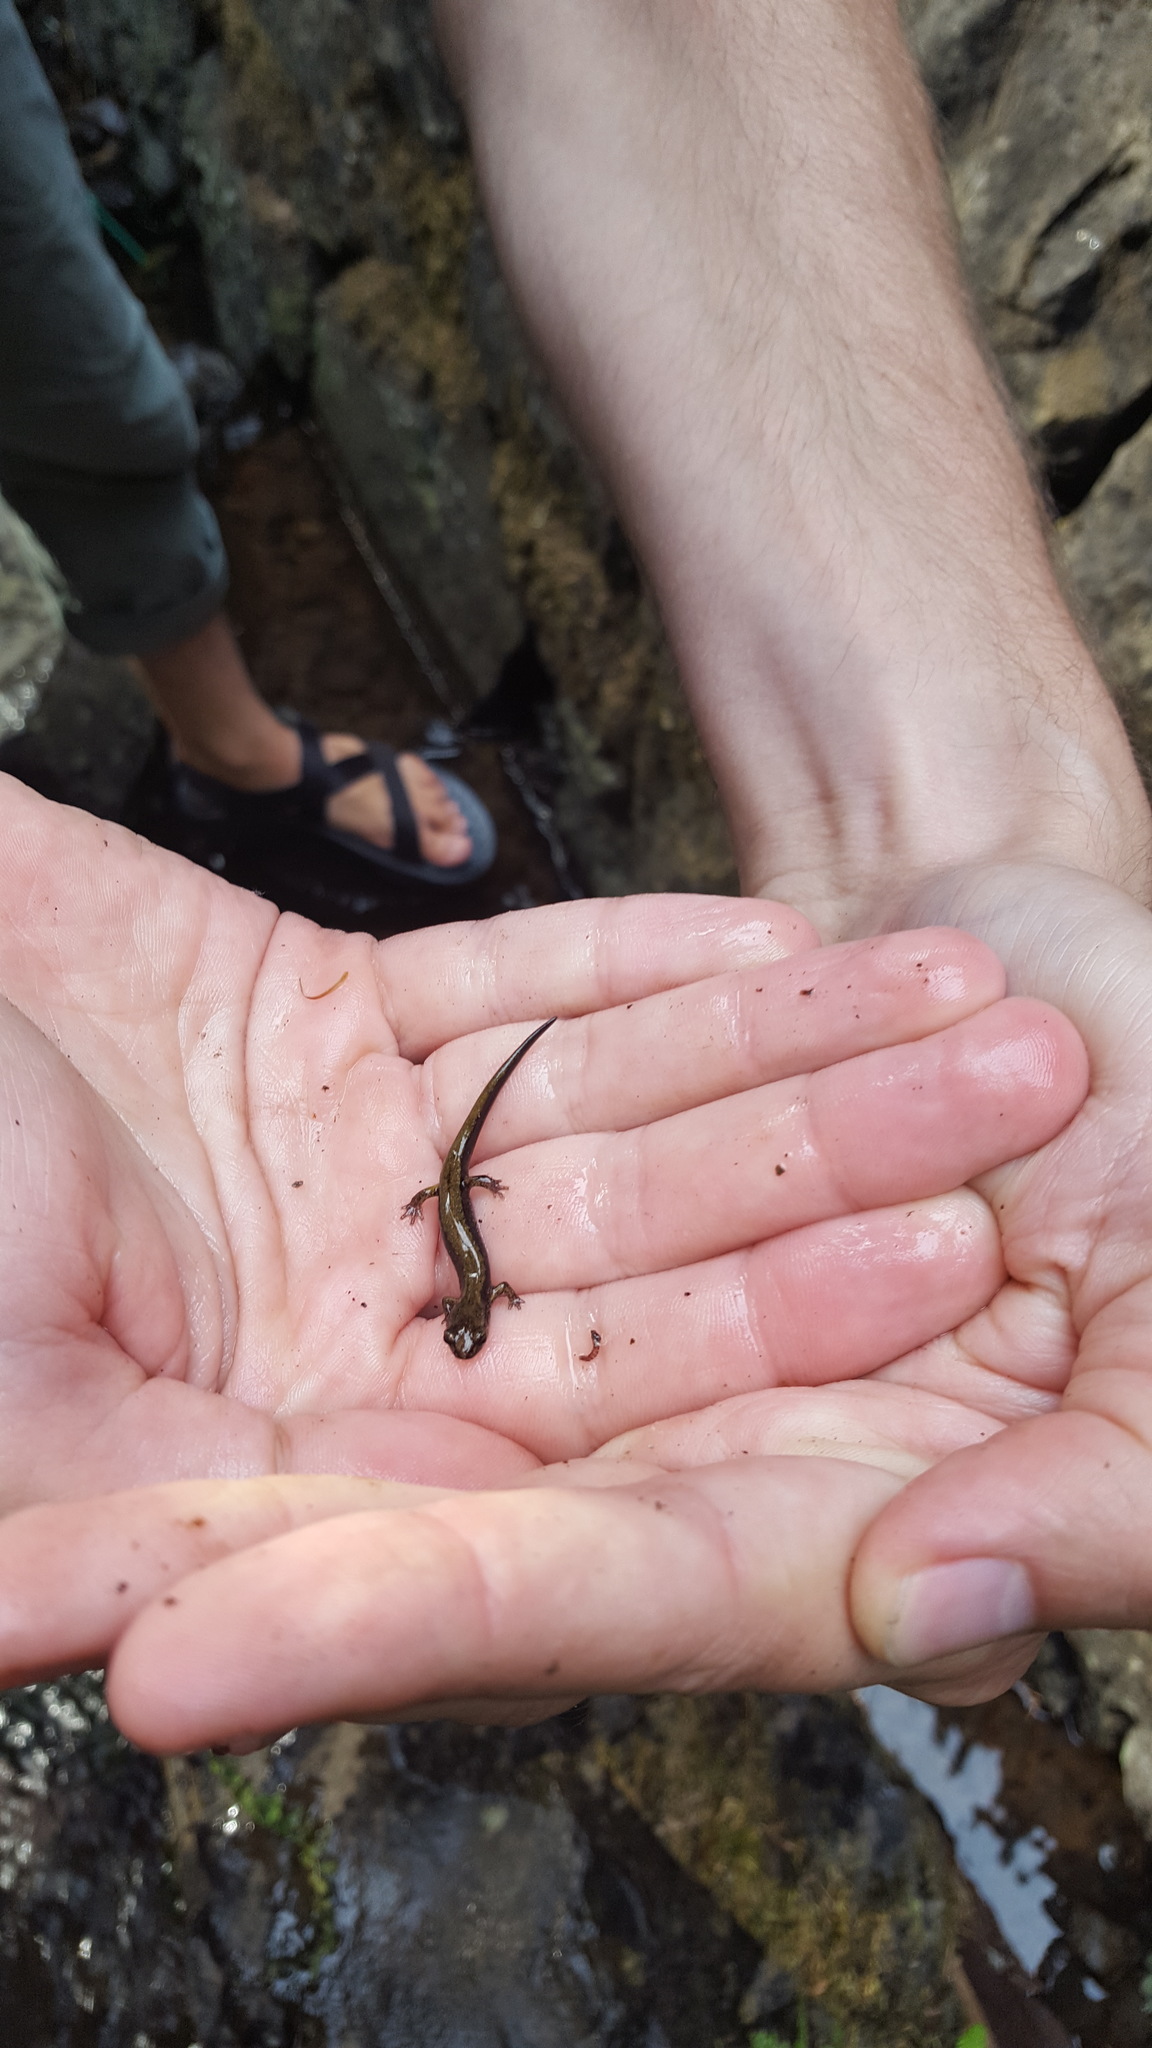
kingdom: Animalia
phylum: Chordata
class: Amphibia
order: Caudata
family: Plethodontidae
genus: Plethodon
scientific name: Plethodon dunni
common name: Dunn's salamander
